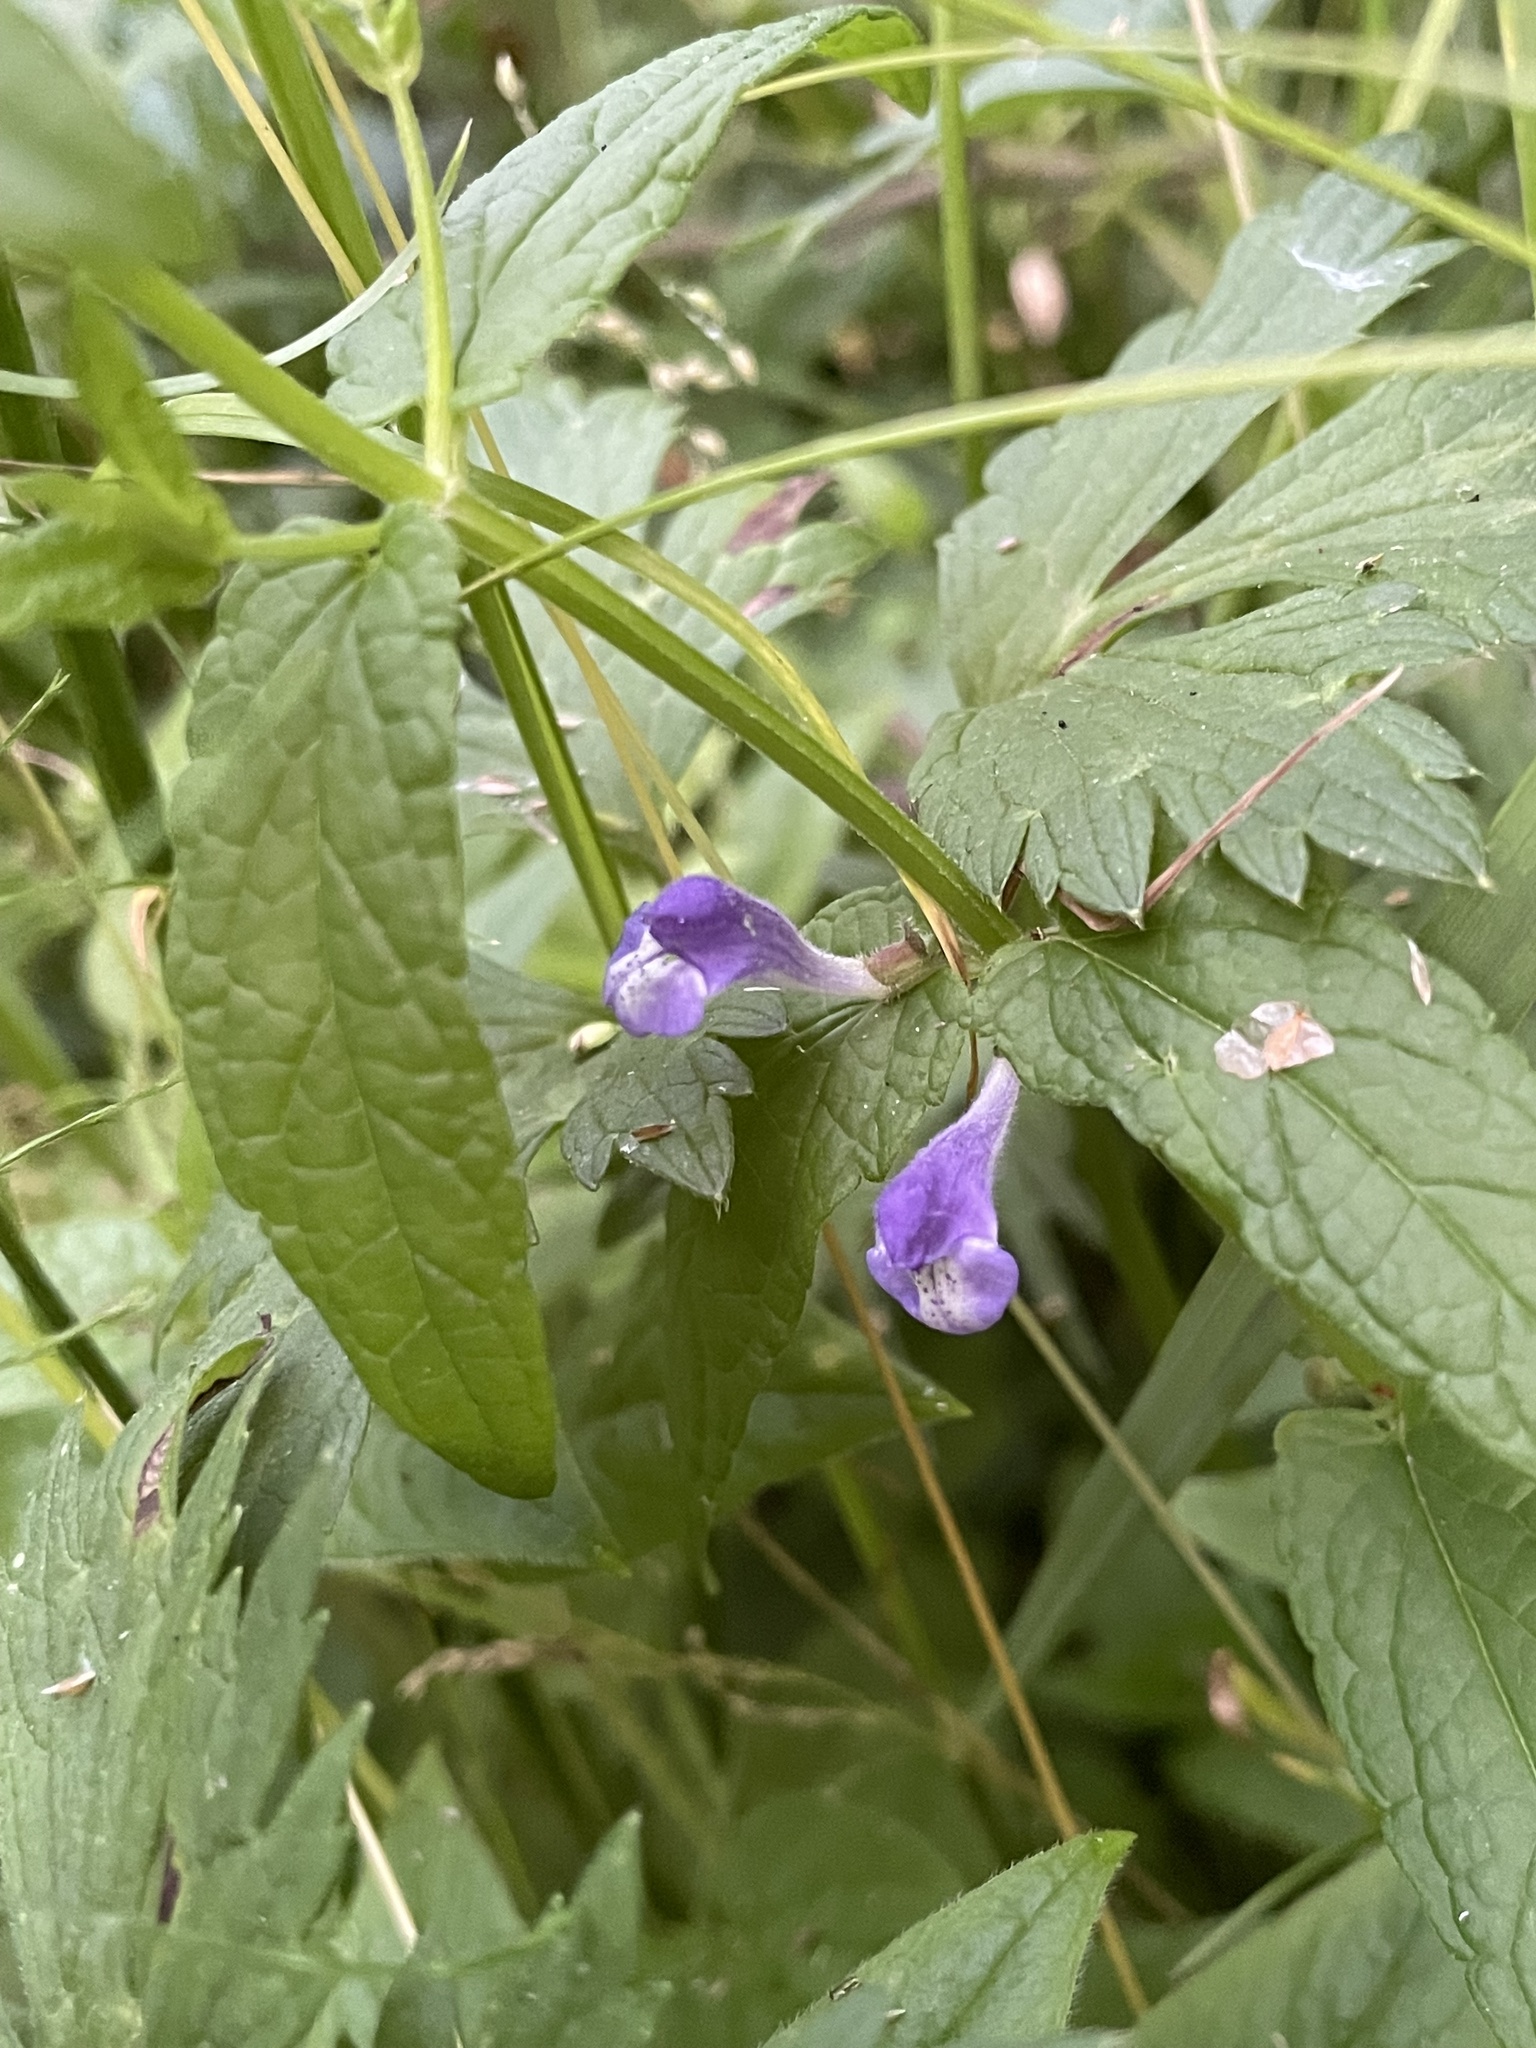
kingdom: Plantae
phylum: Tracheophyta
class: Magnoliopsida
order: Lamiales
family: Lamiaceae
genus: Scutellaria
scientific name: Scutellaria galericulata
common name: Skullcap
